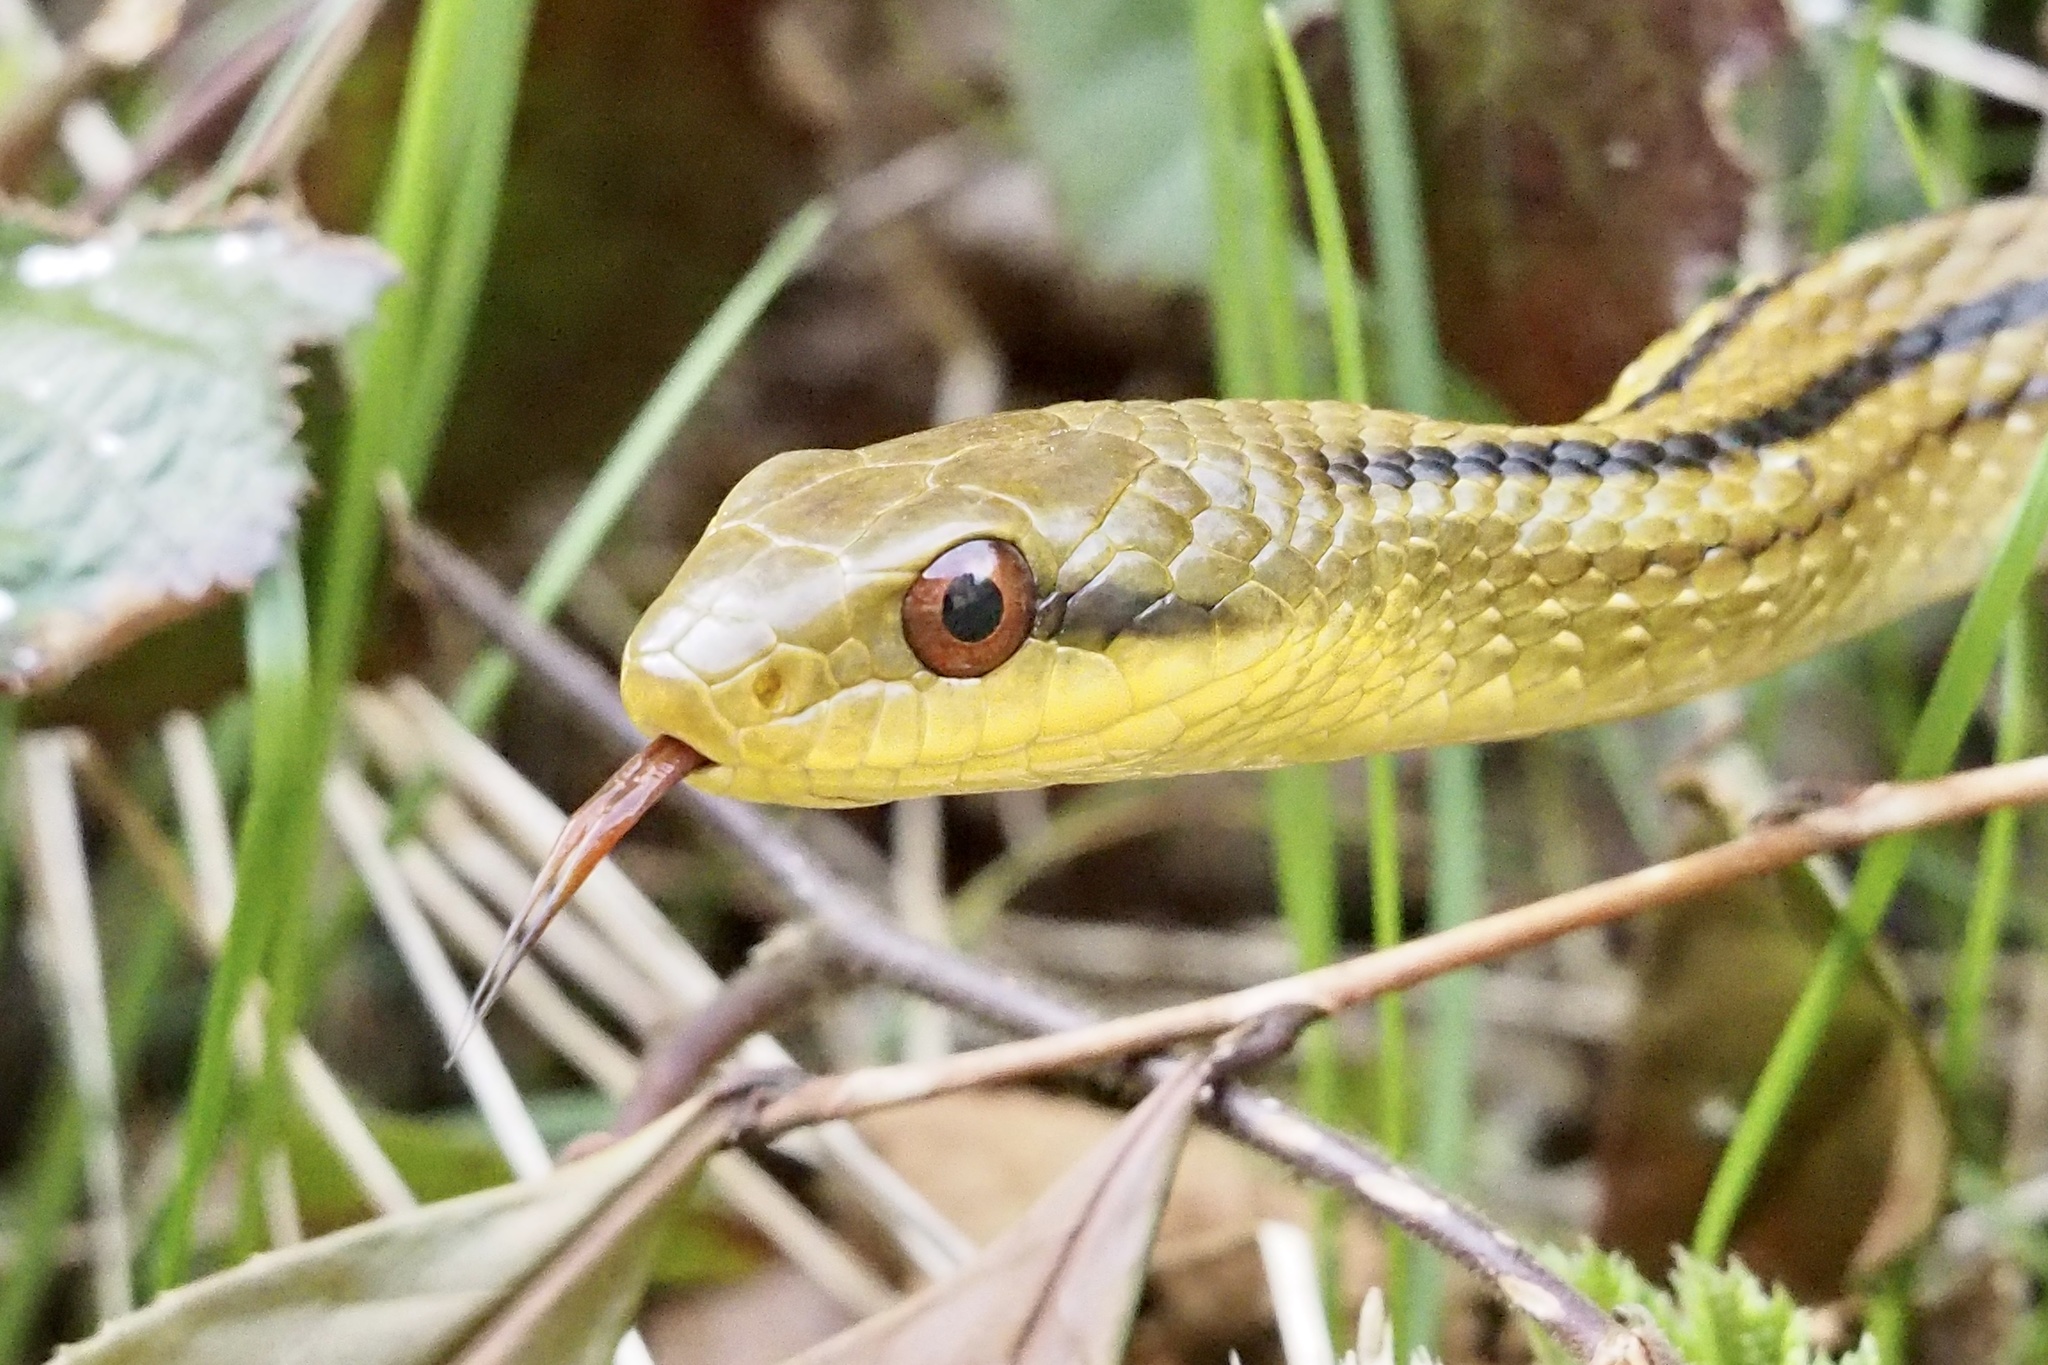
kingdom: Animalia
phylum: Chordata
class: Squamata
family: Colubridae
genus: Elaphe
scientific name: Elaphe quadrivirgata
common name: Japanese four-lined ratsnake
